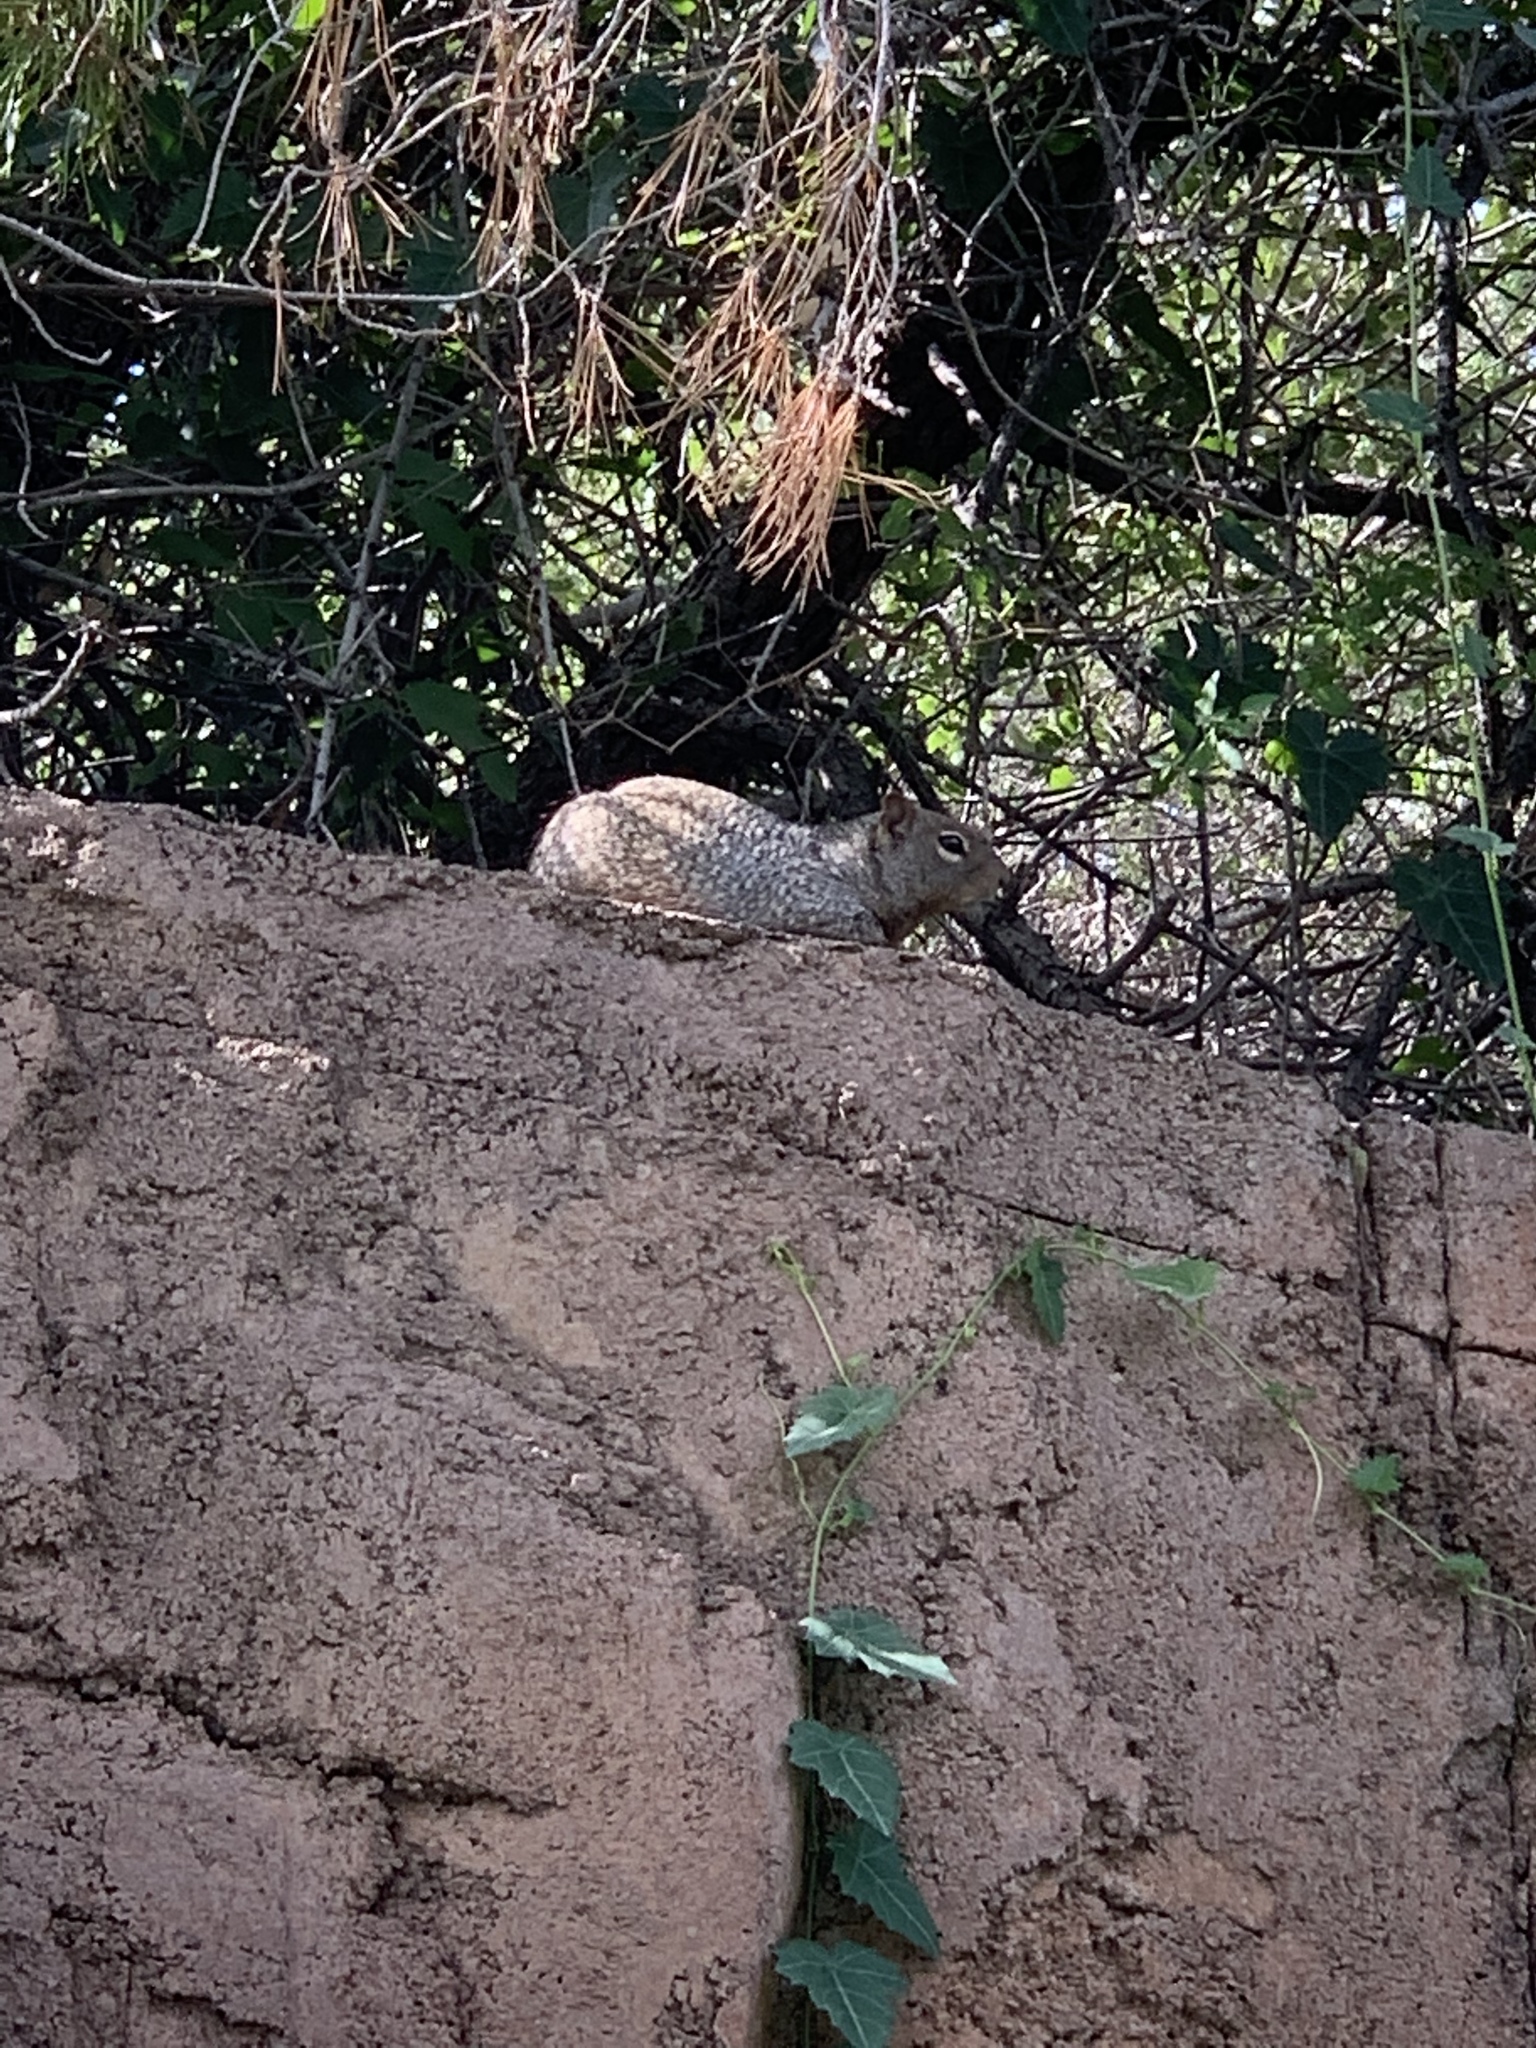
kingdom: Animalia
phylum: Chordata
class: Mammalia
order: Rodentia
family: Sciuridae
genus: Otospermophilus
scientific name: Otospermophilus variegatus
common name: Rock squirrel
